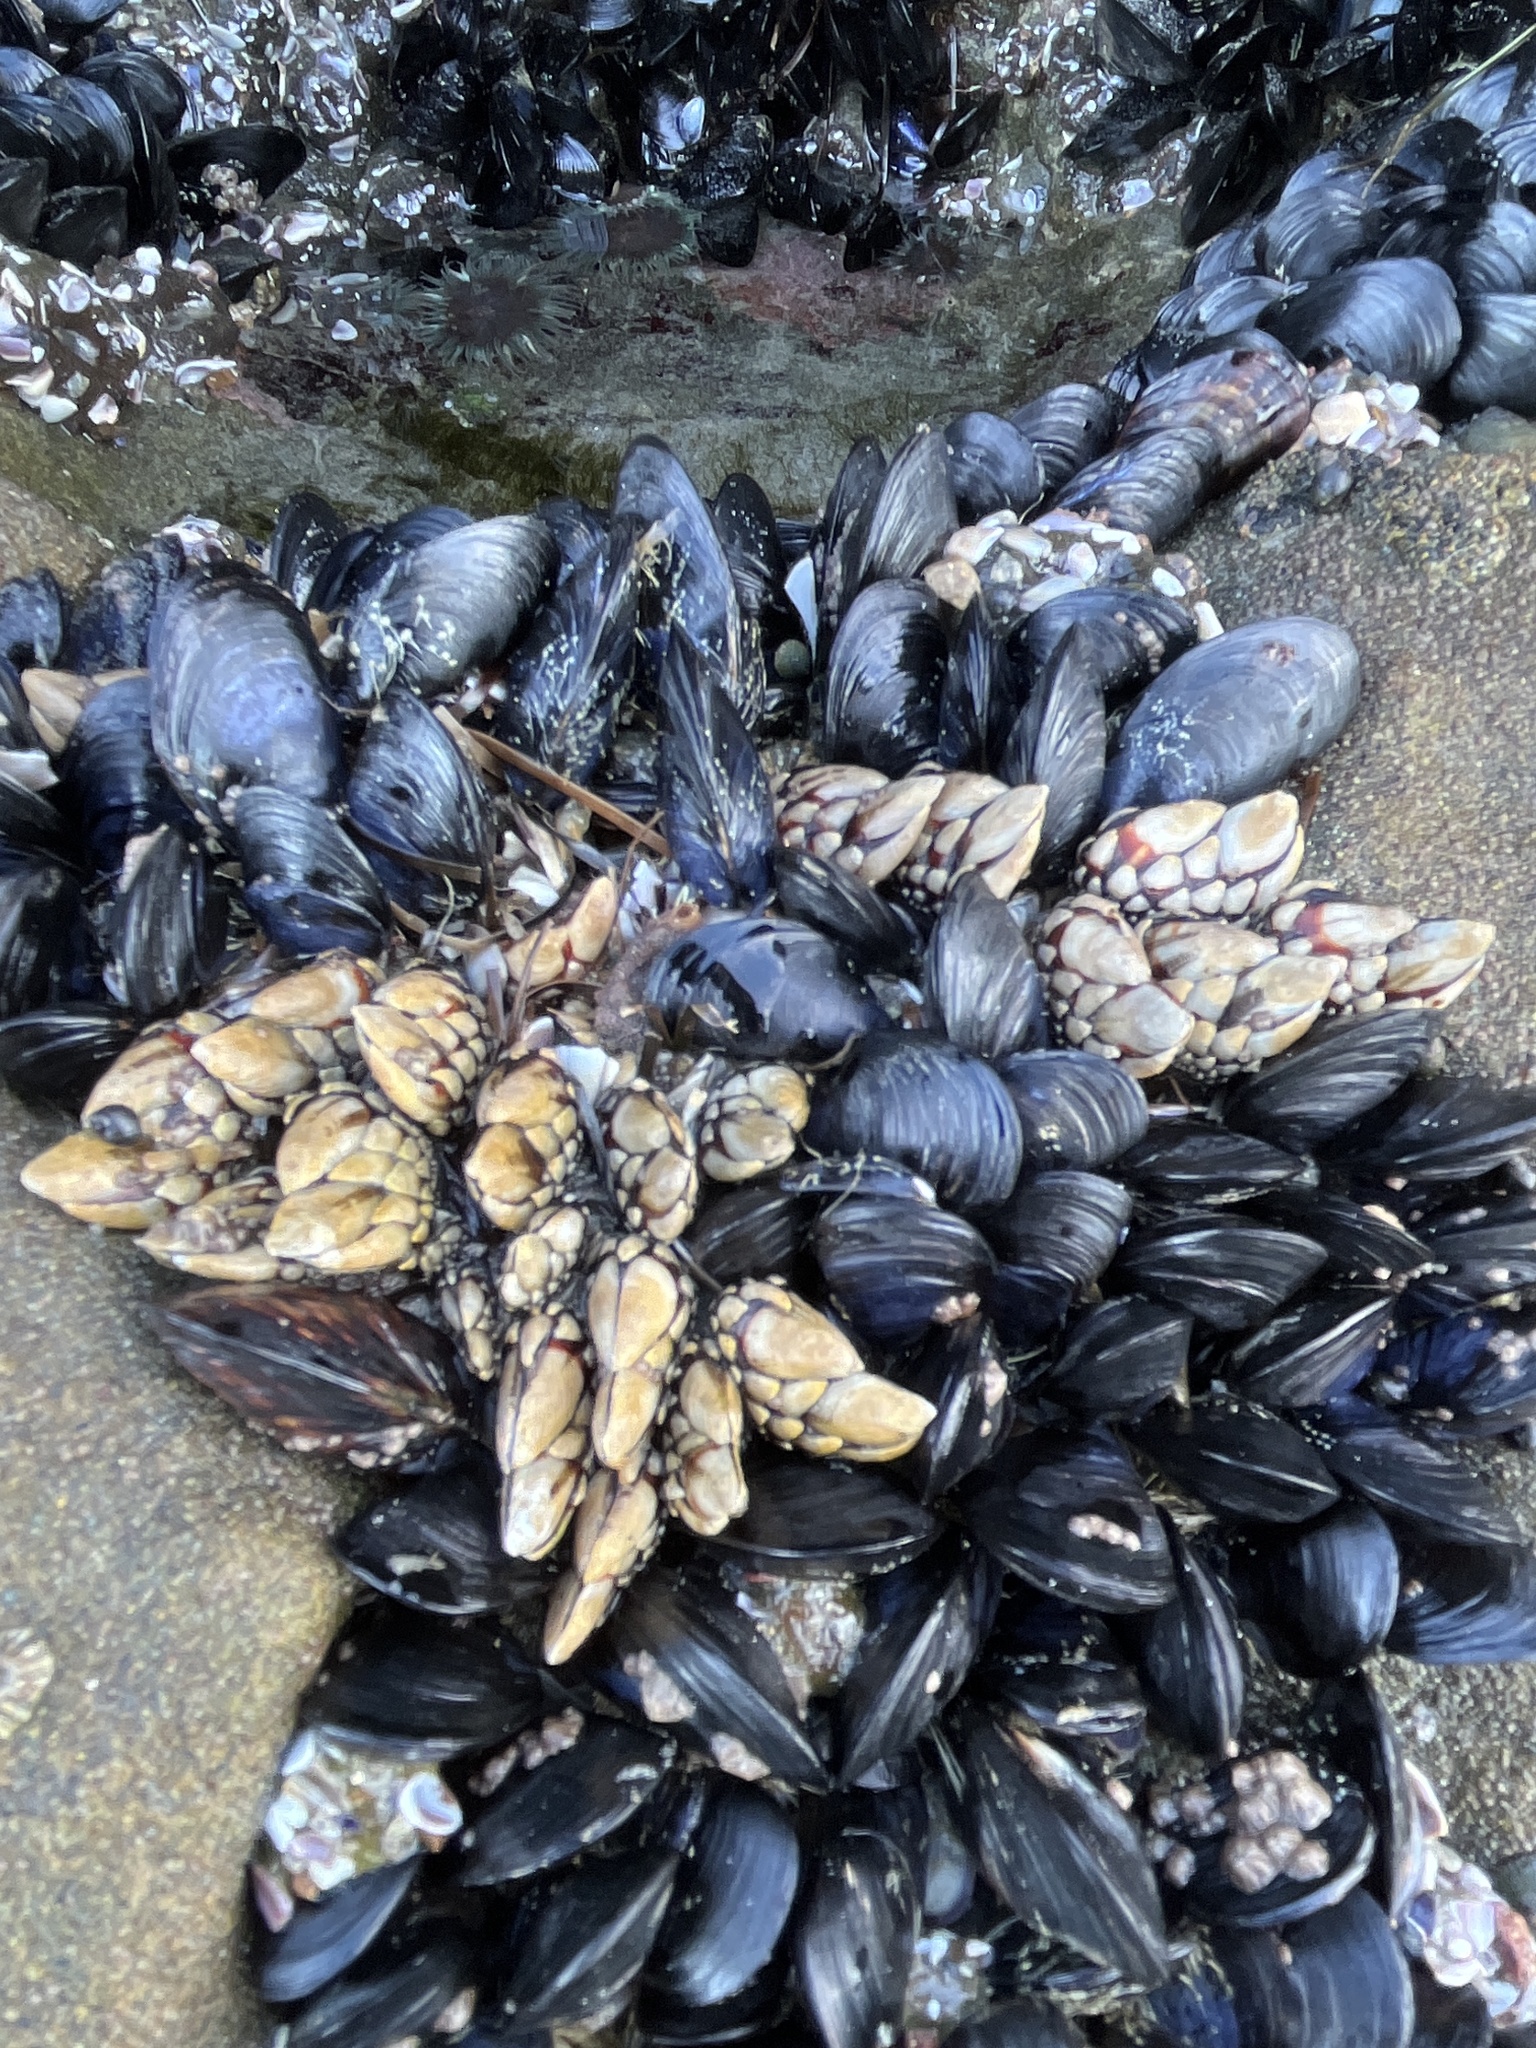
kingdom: Animalia
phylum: Arthropoda
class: Maxillopoda
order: Pedunculata
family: Pollicipedidae
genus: Pollicipes
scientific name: Pollicipes polymerus
